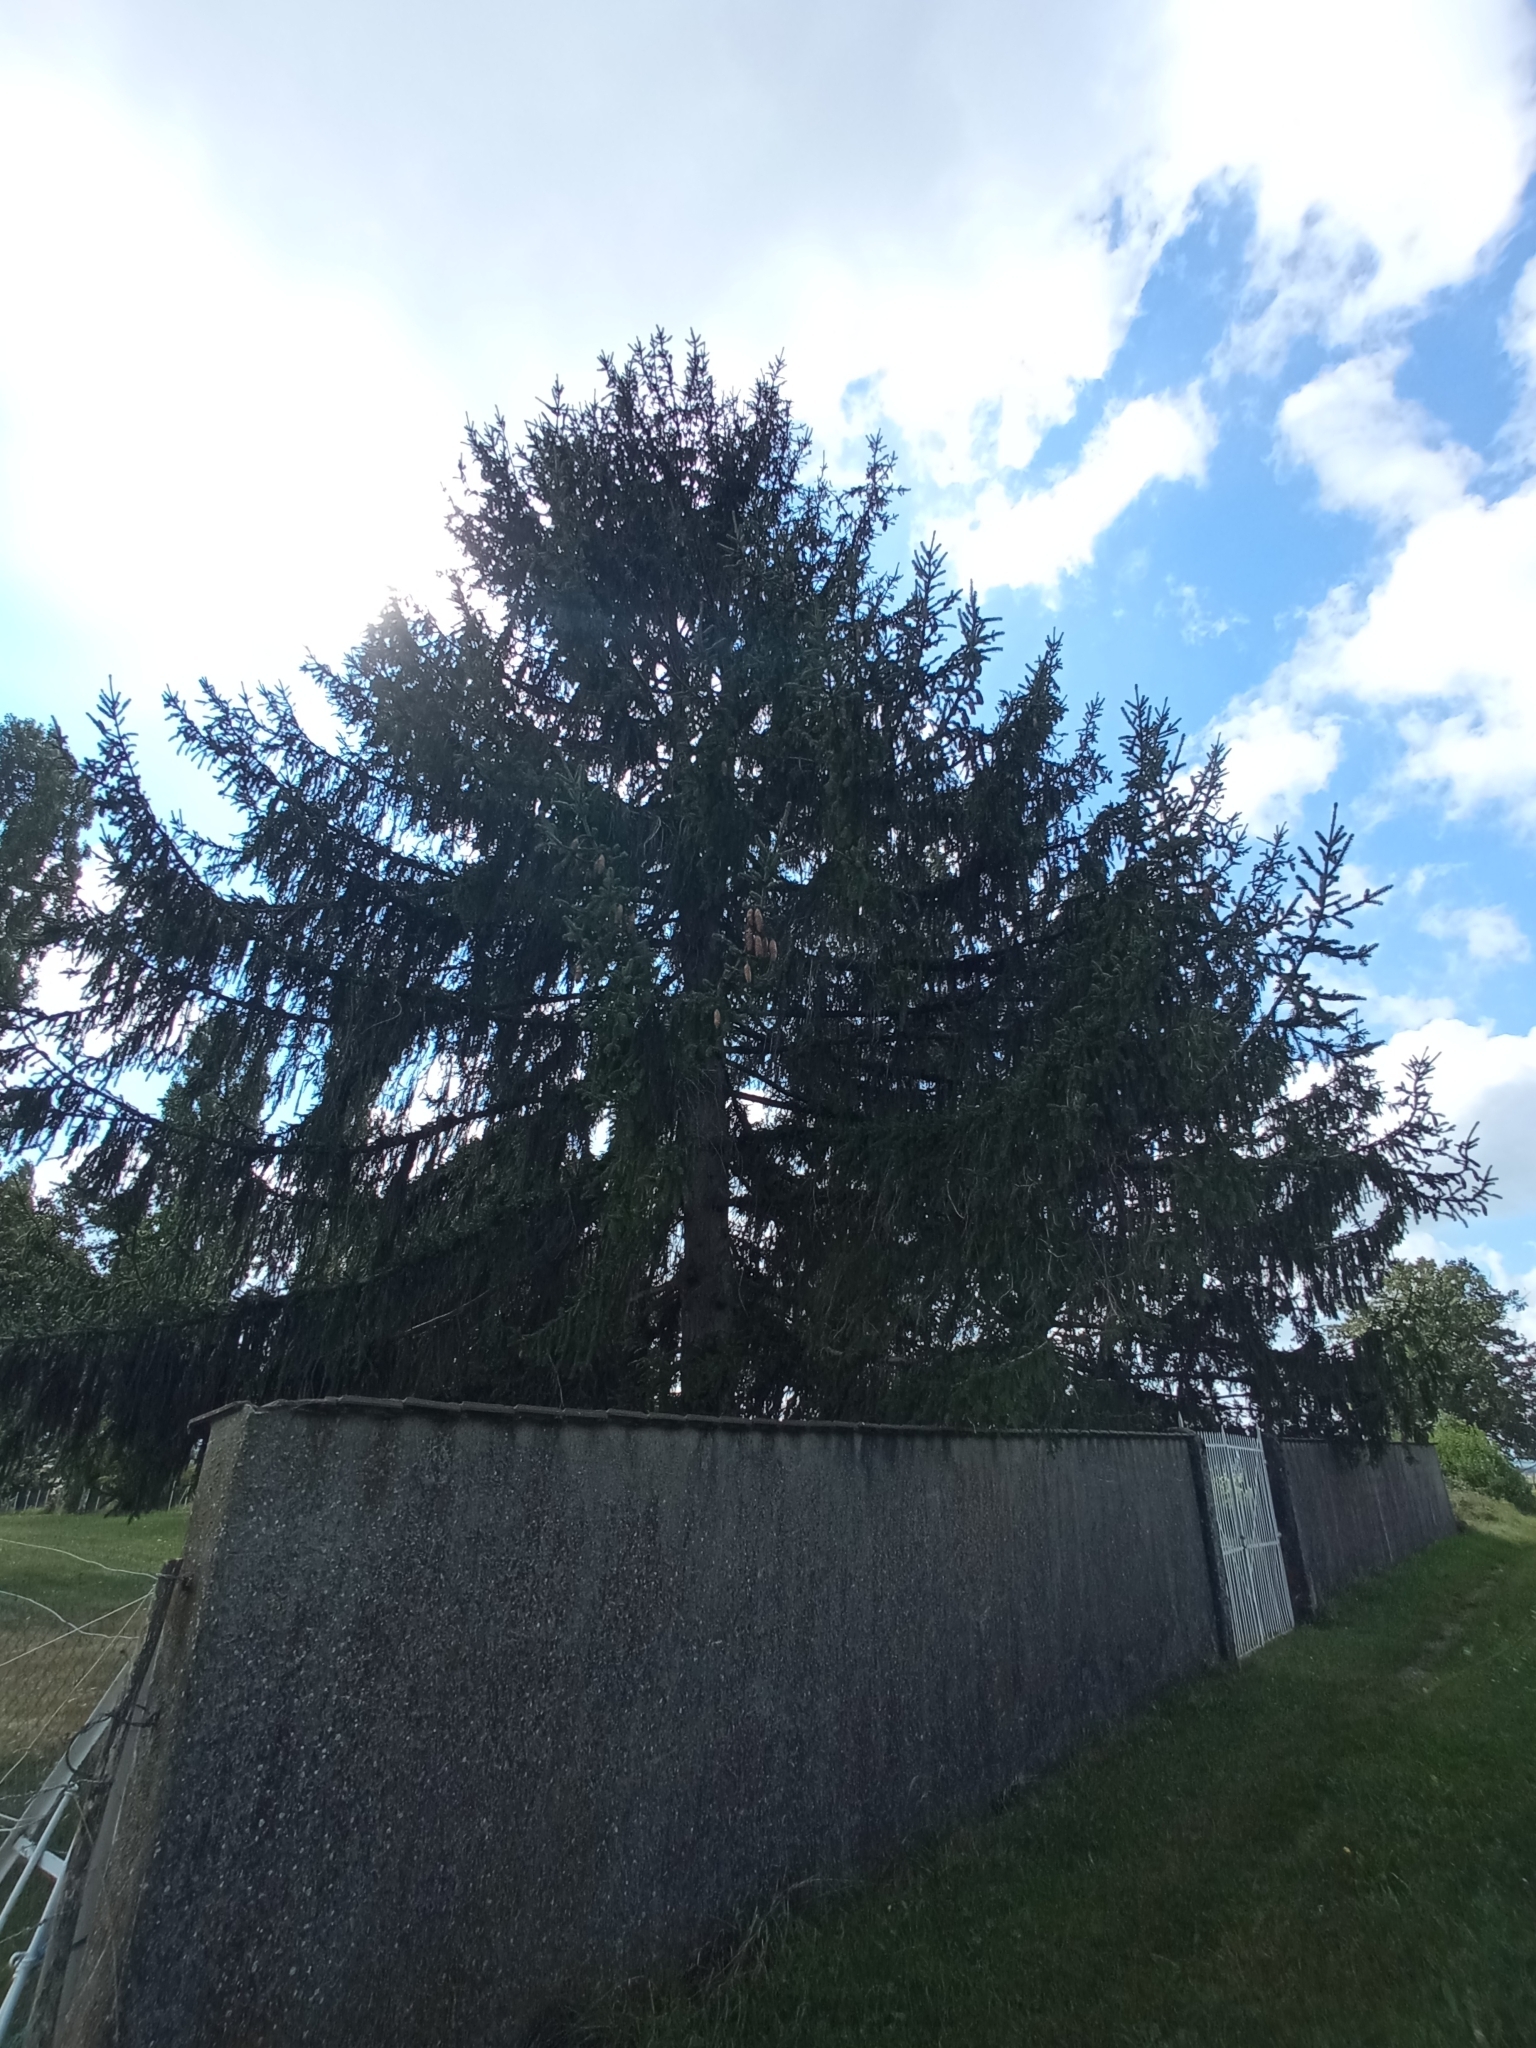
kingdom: Plantae
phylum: Tracheophyta
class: Pinopsida
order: Pinales
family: Pinaceae
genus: Picea
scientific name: Picea abies
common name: Norway spruce
